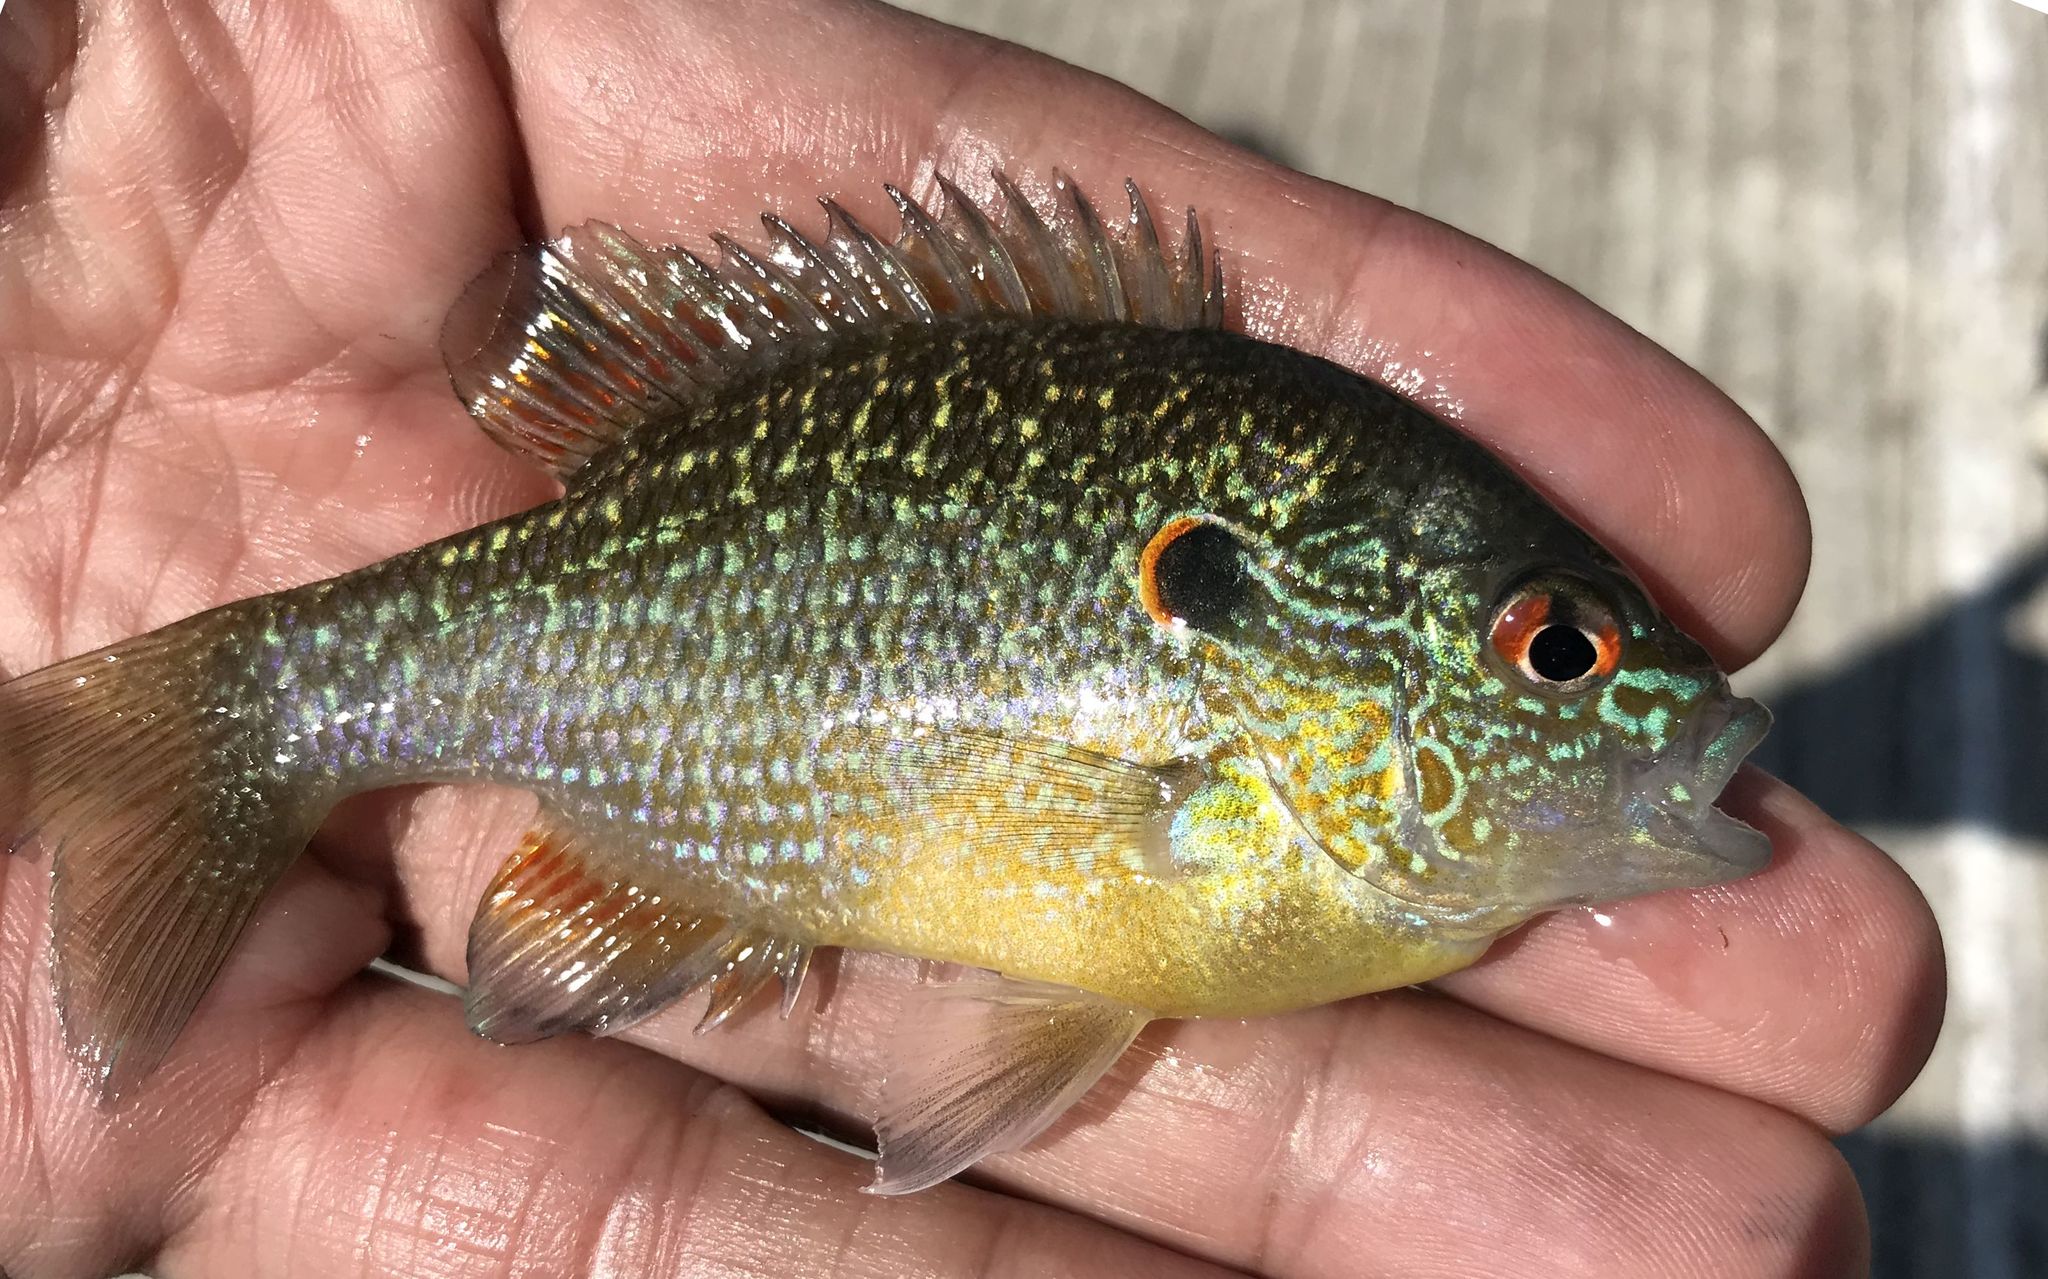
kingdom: Animalia
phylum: Chordata
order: Perciformes
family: Centrarchidae
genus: Lepomis
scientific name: Lepomis peltastes
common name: Northern sunfish
